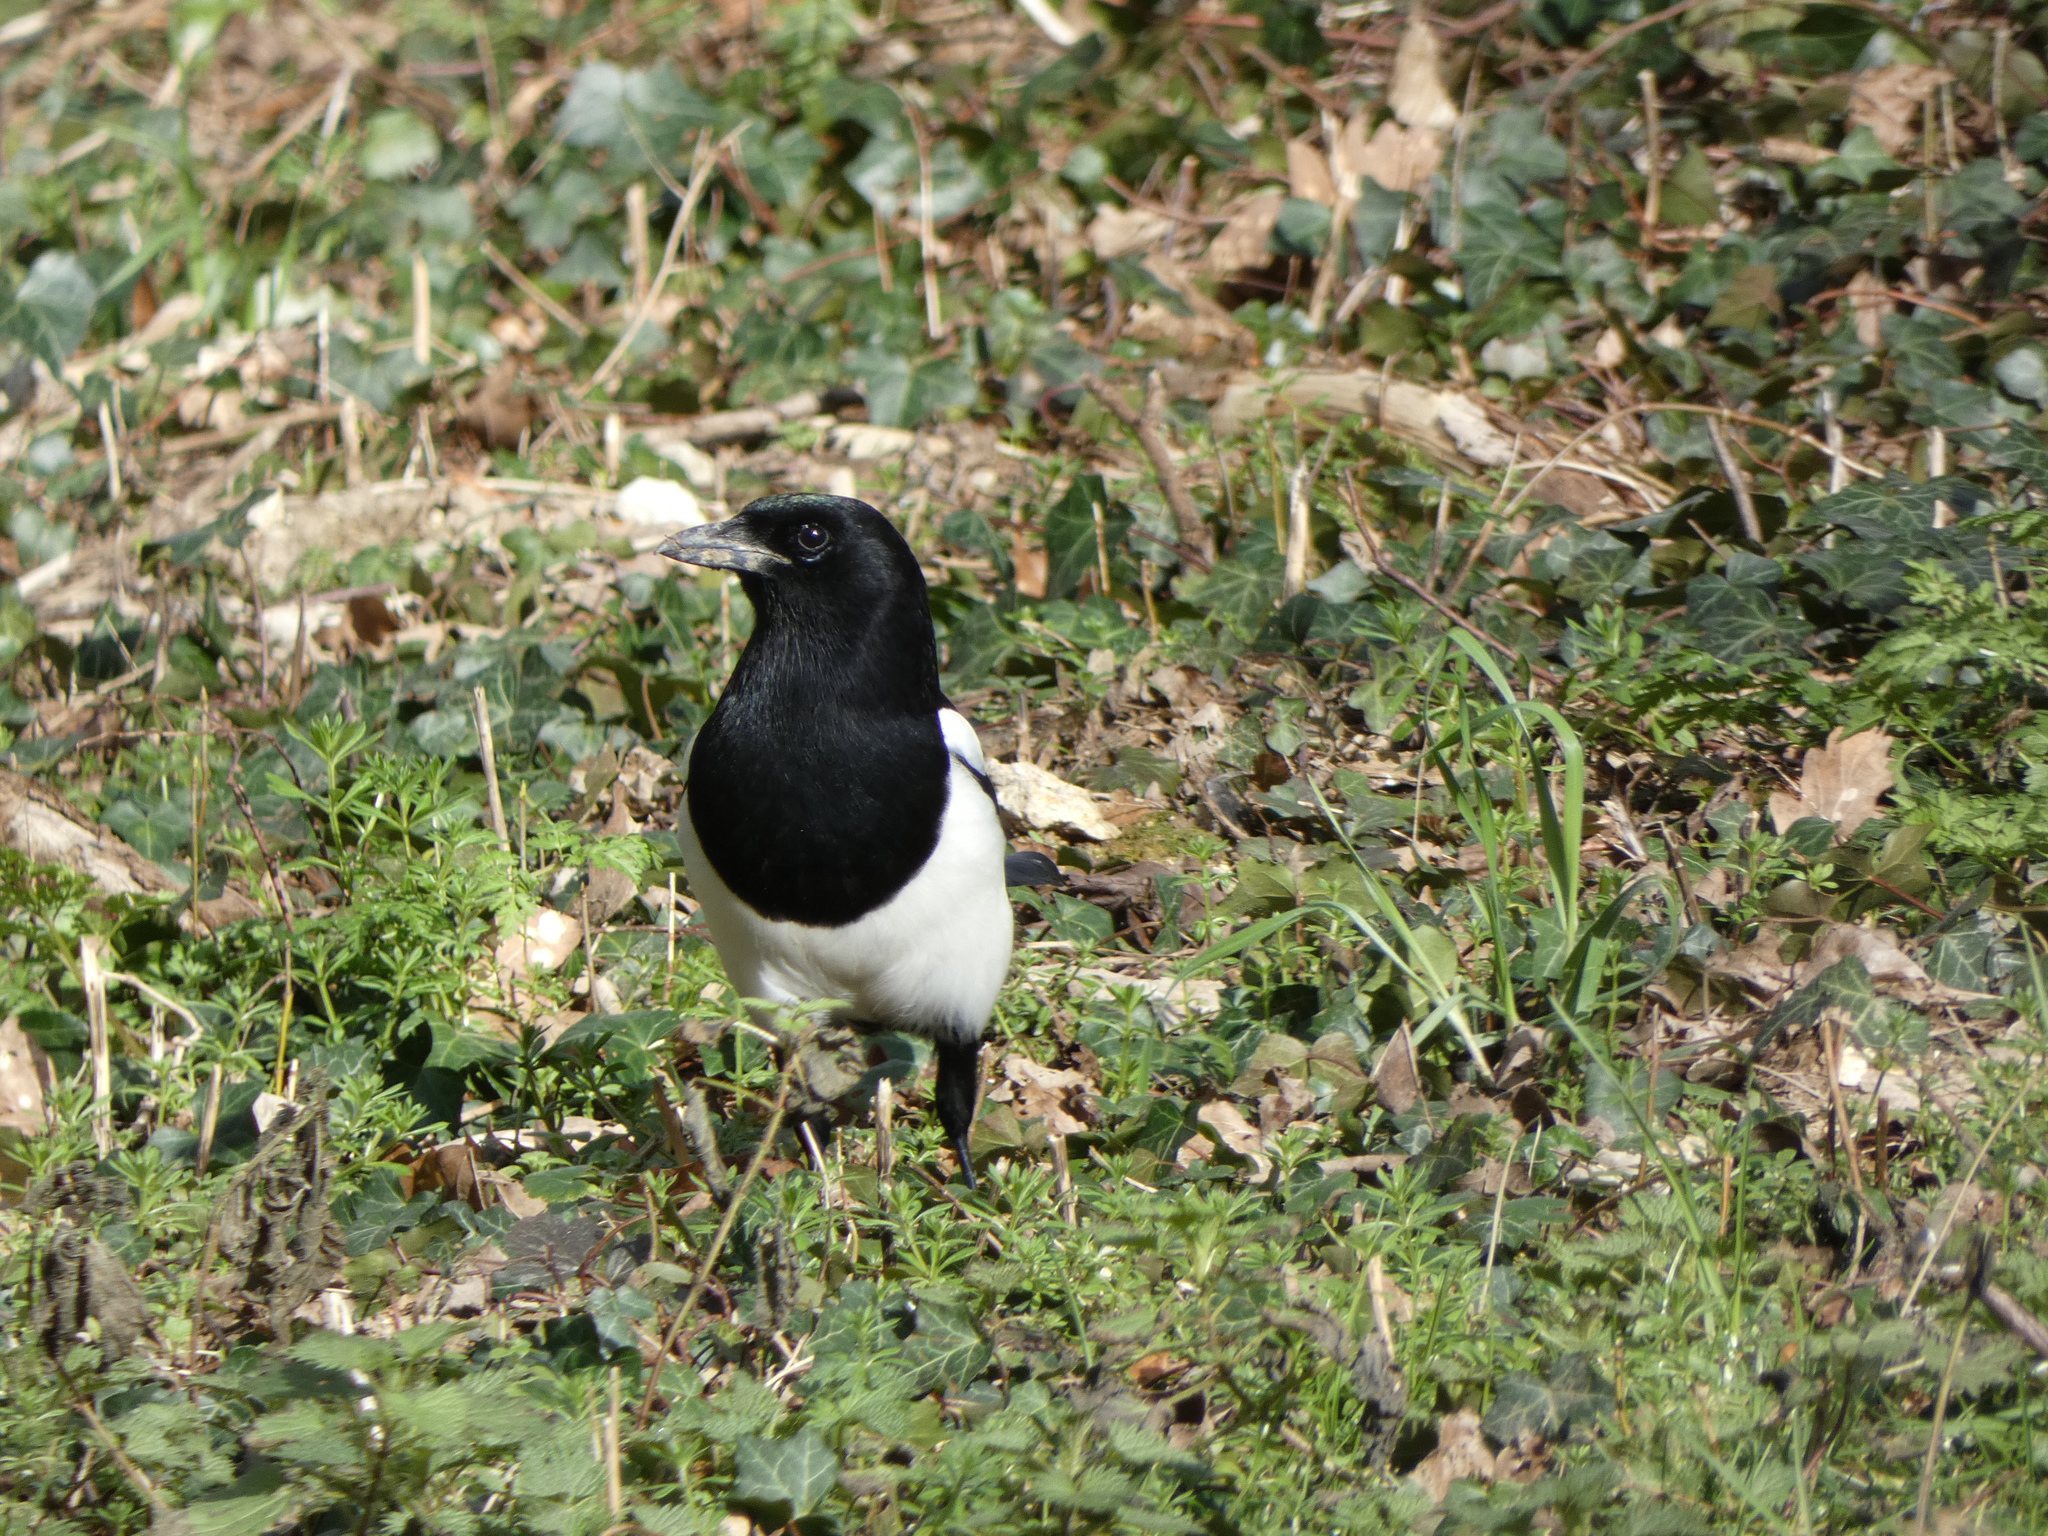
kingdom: Animalia
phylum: Chordata
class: Aves
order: Passeriformes
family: Corvidae
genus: Pica
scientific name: Pica pica
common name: Eurasian magpie
